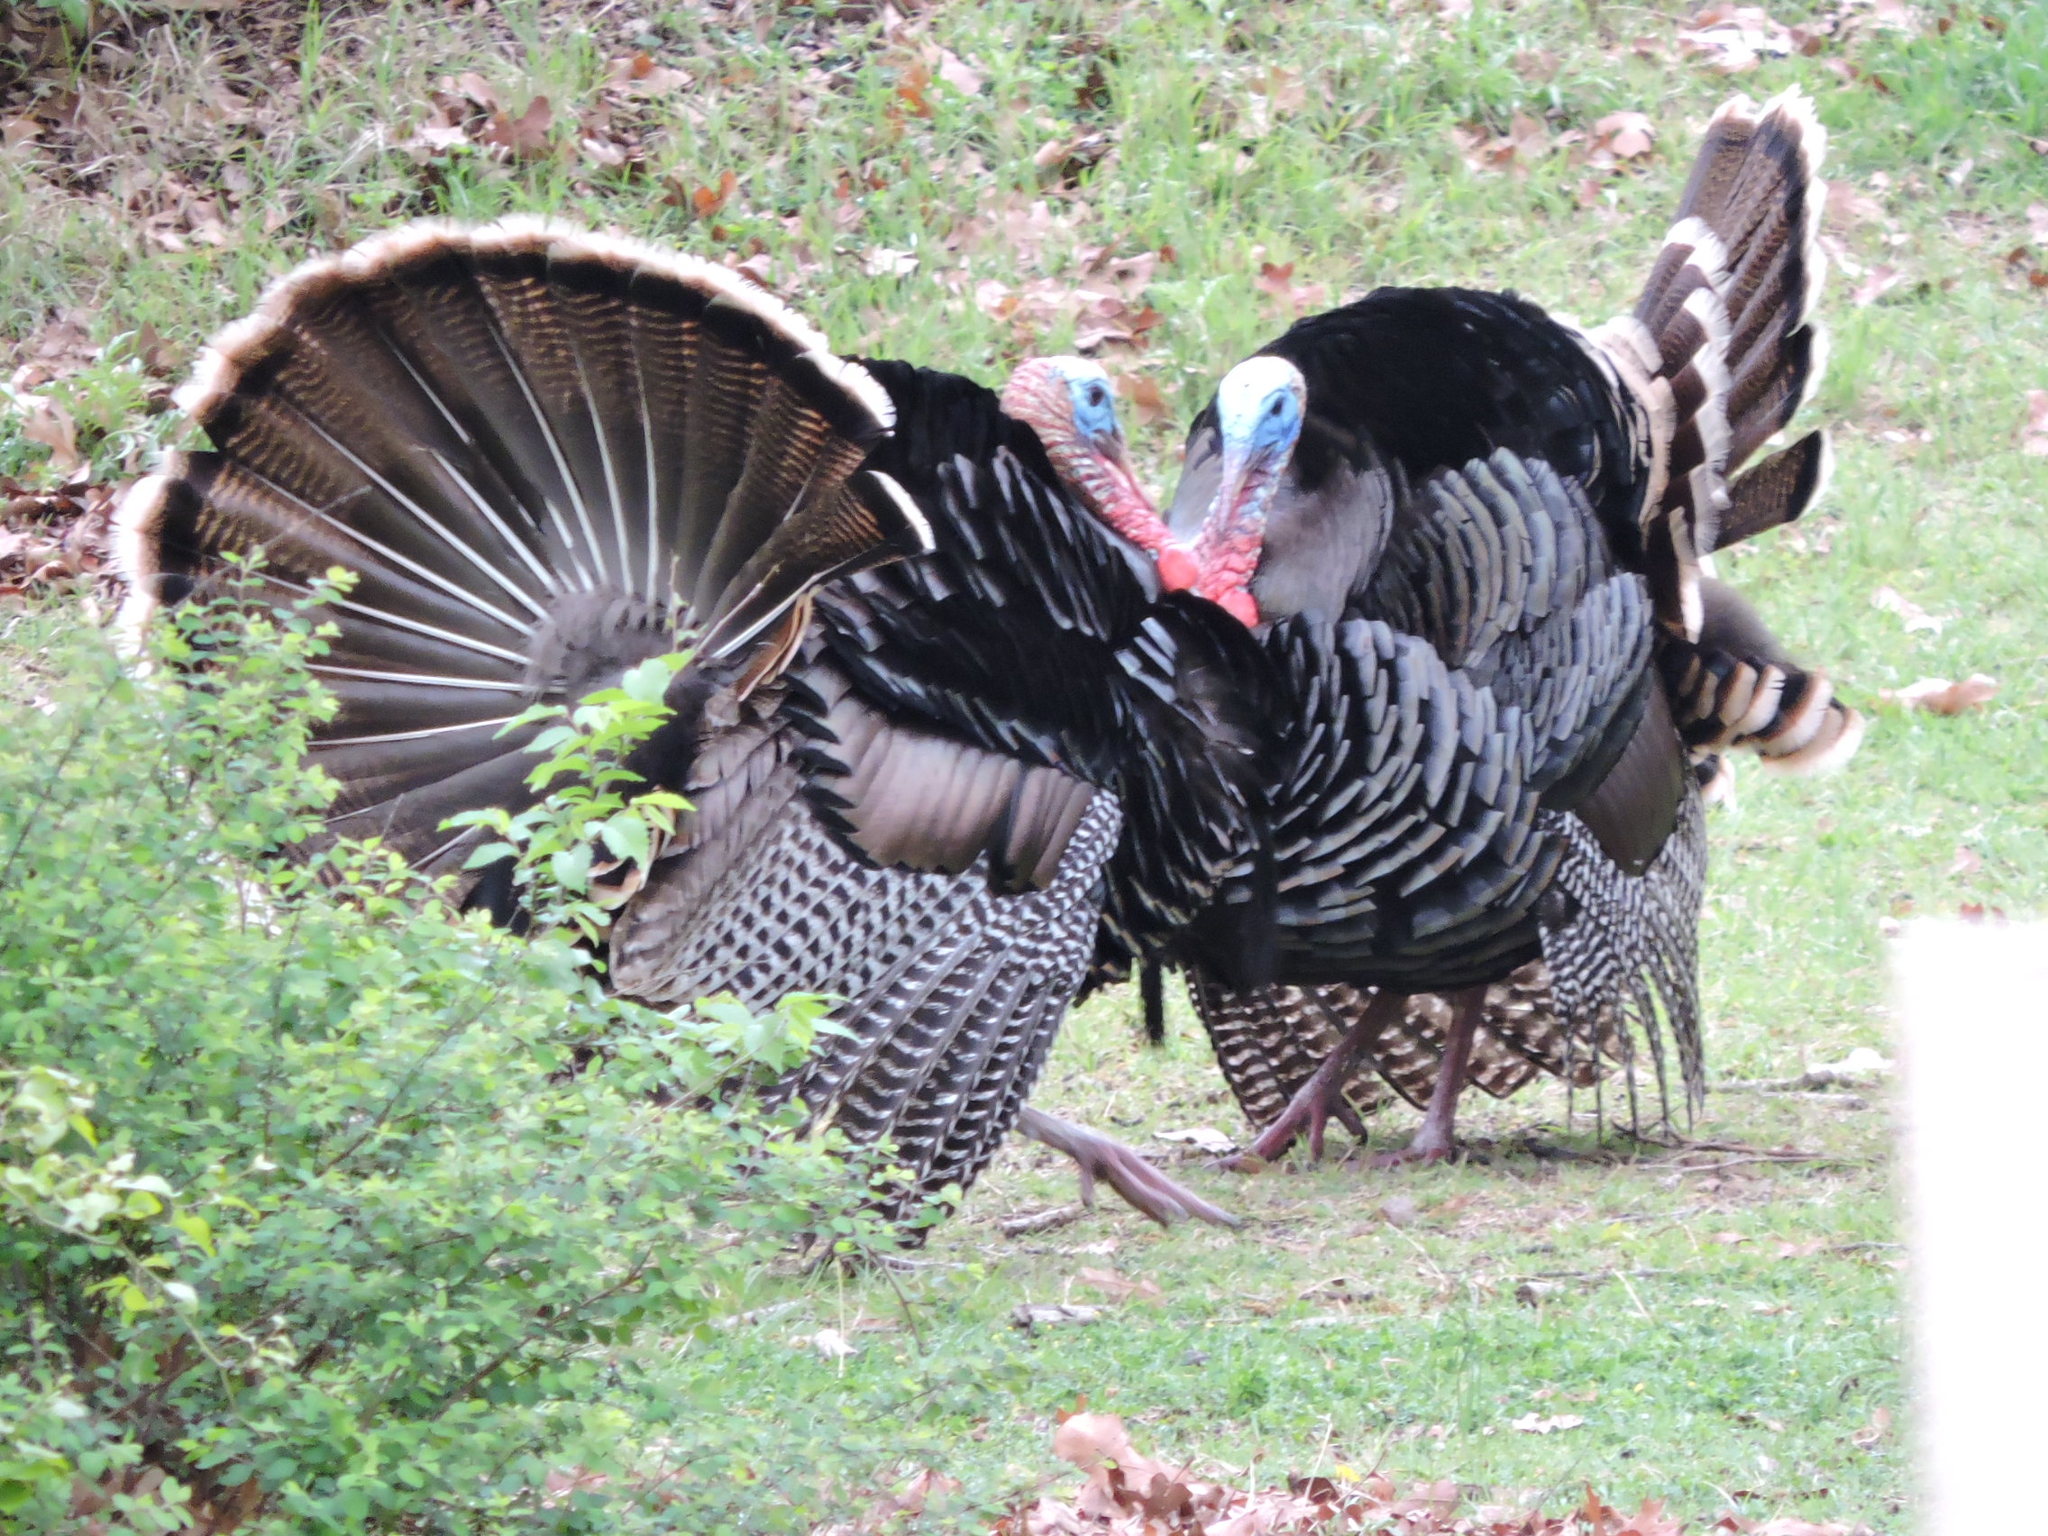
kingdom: Animalia
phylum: Chordata
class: Aves
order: Galliformes
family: Phasianidae
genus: Meleagris
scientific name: Meleagris gallopavo
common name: Wild turkey
